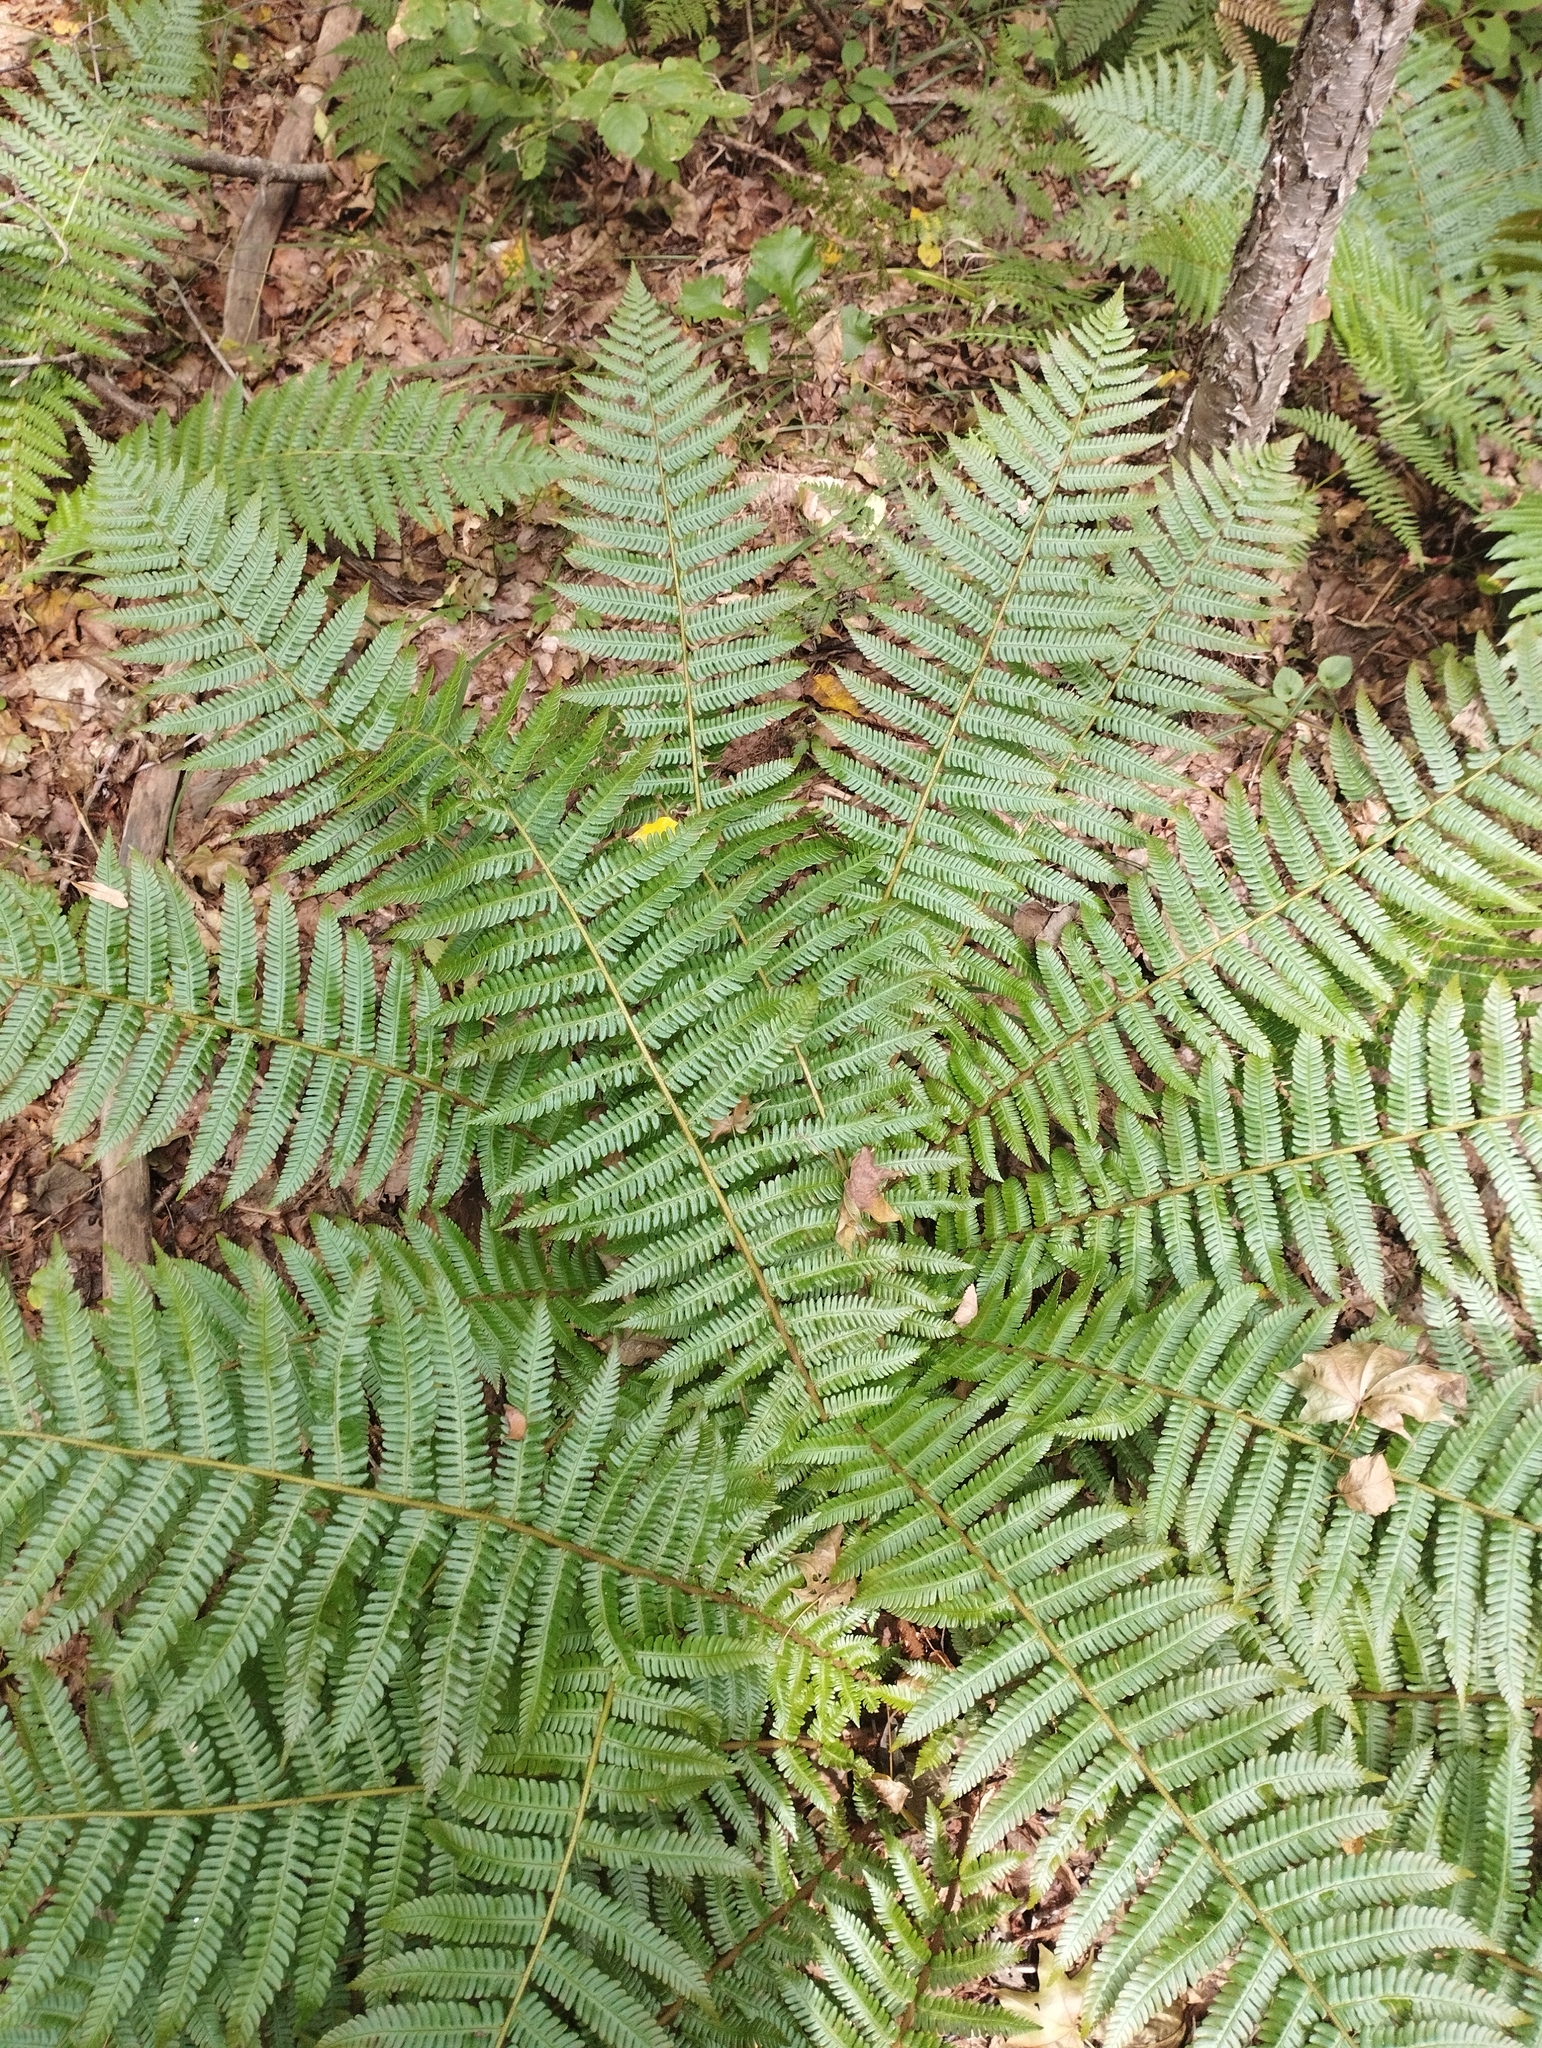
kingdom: Plantae
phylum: Tracheophyta
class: Polypodiopsida
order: Polypodiales
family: Dryopteridaceae
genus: Dryopteris
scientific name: Dryopteris crassirhizoma
